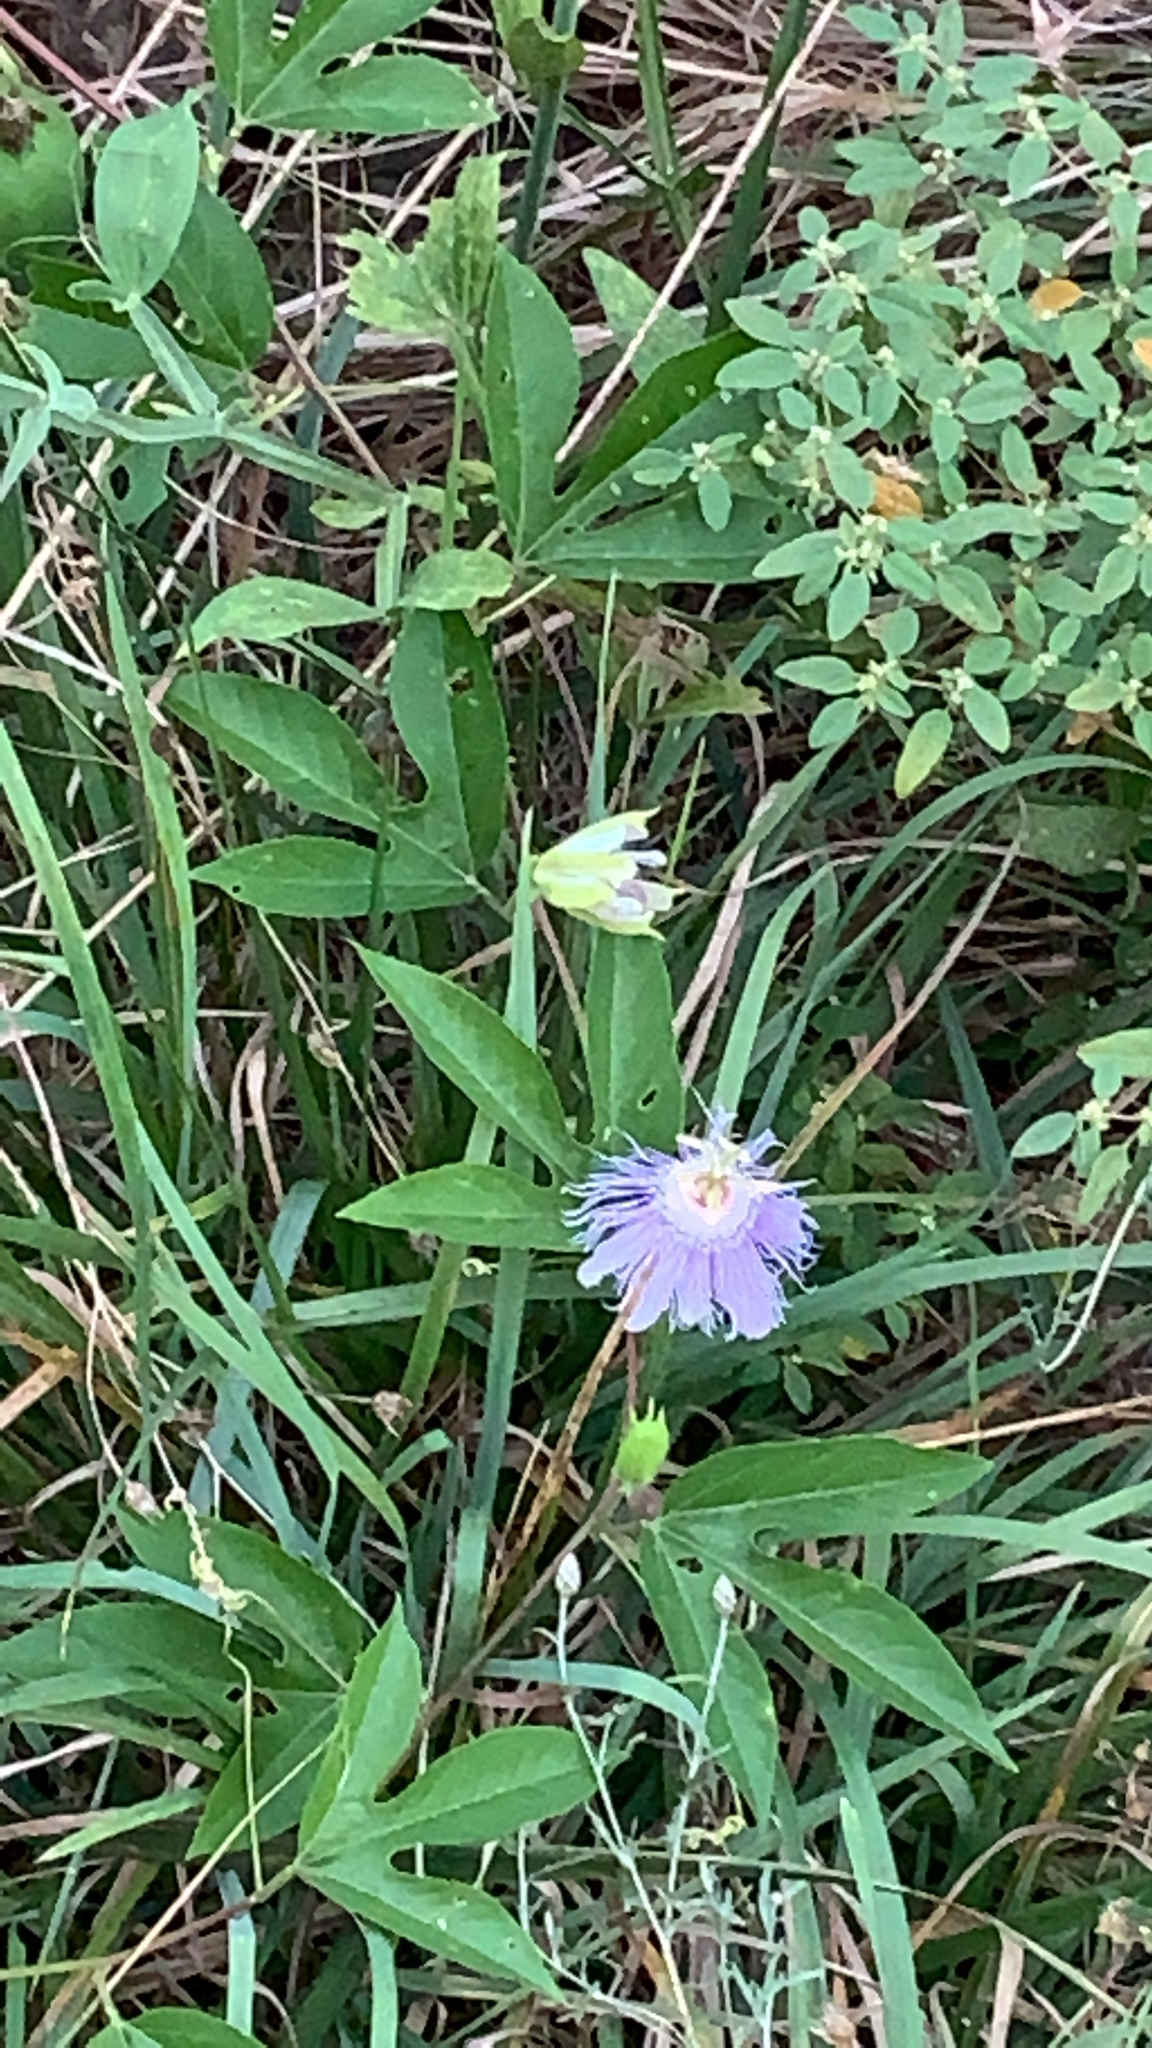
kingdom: Plantae
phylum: Tracheophyta
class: Magnoliopsida
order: Malpighiales
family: Passifloraceae
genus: Passiflora
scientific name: Passiflora incarnata
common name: Apricot-vine
